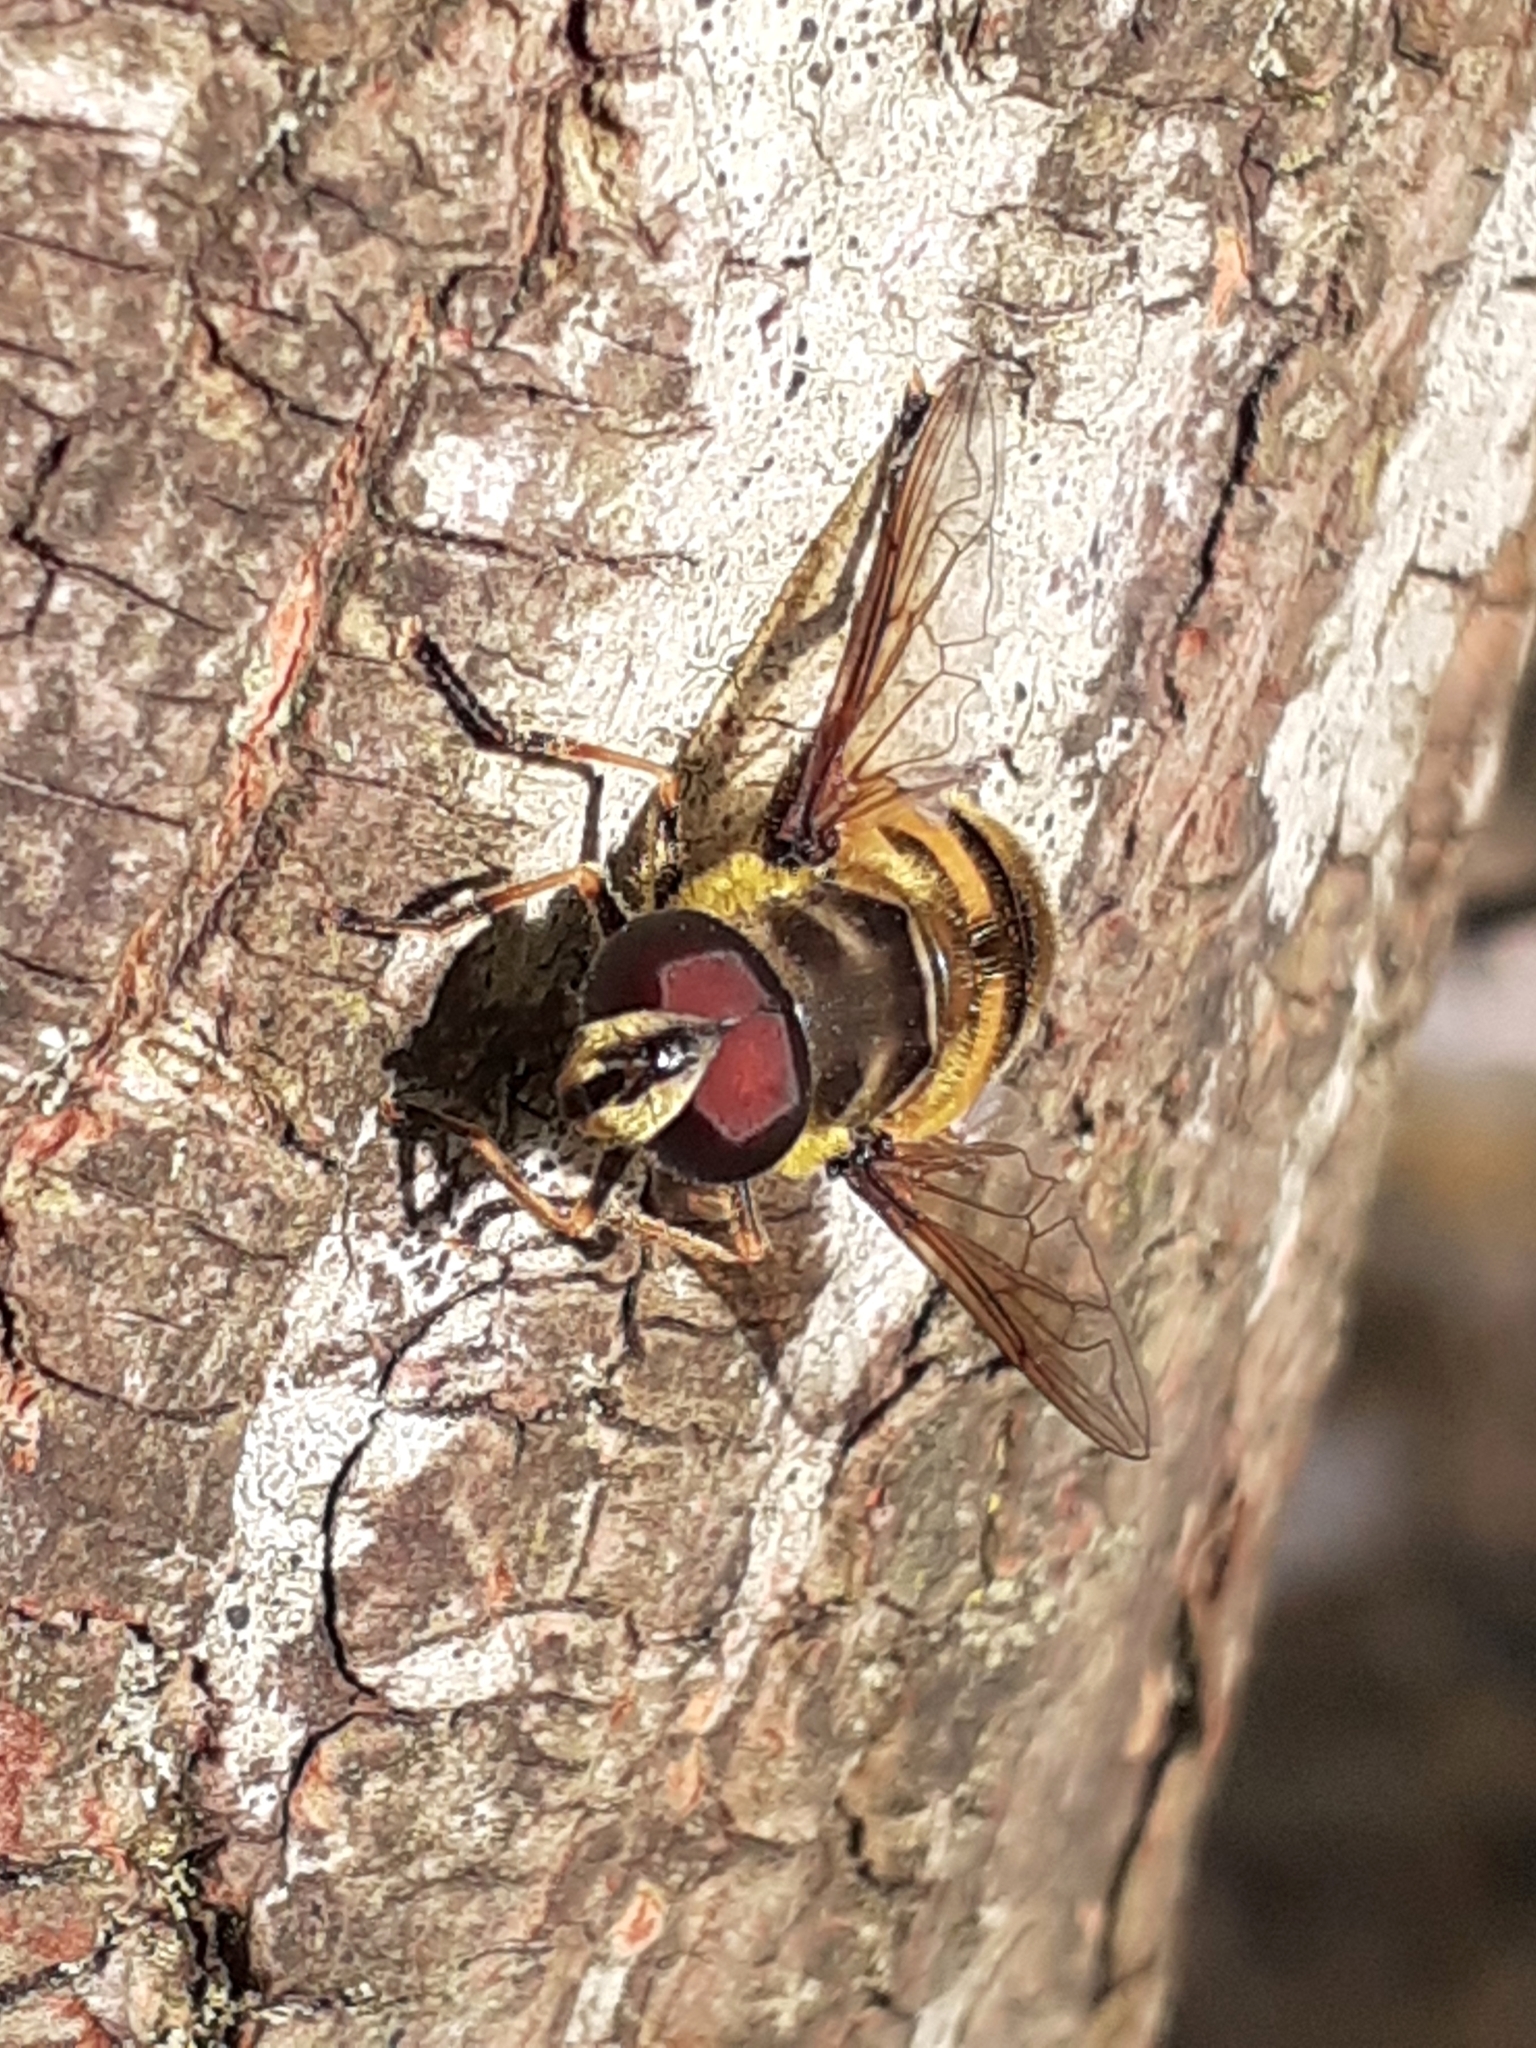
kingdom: Animalia
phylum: Arthropoda
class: Insecta
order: Diptera
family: Syrphidae
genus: Myathropa
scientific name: Myathropa florea
